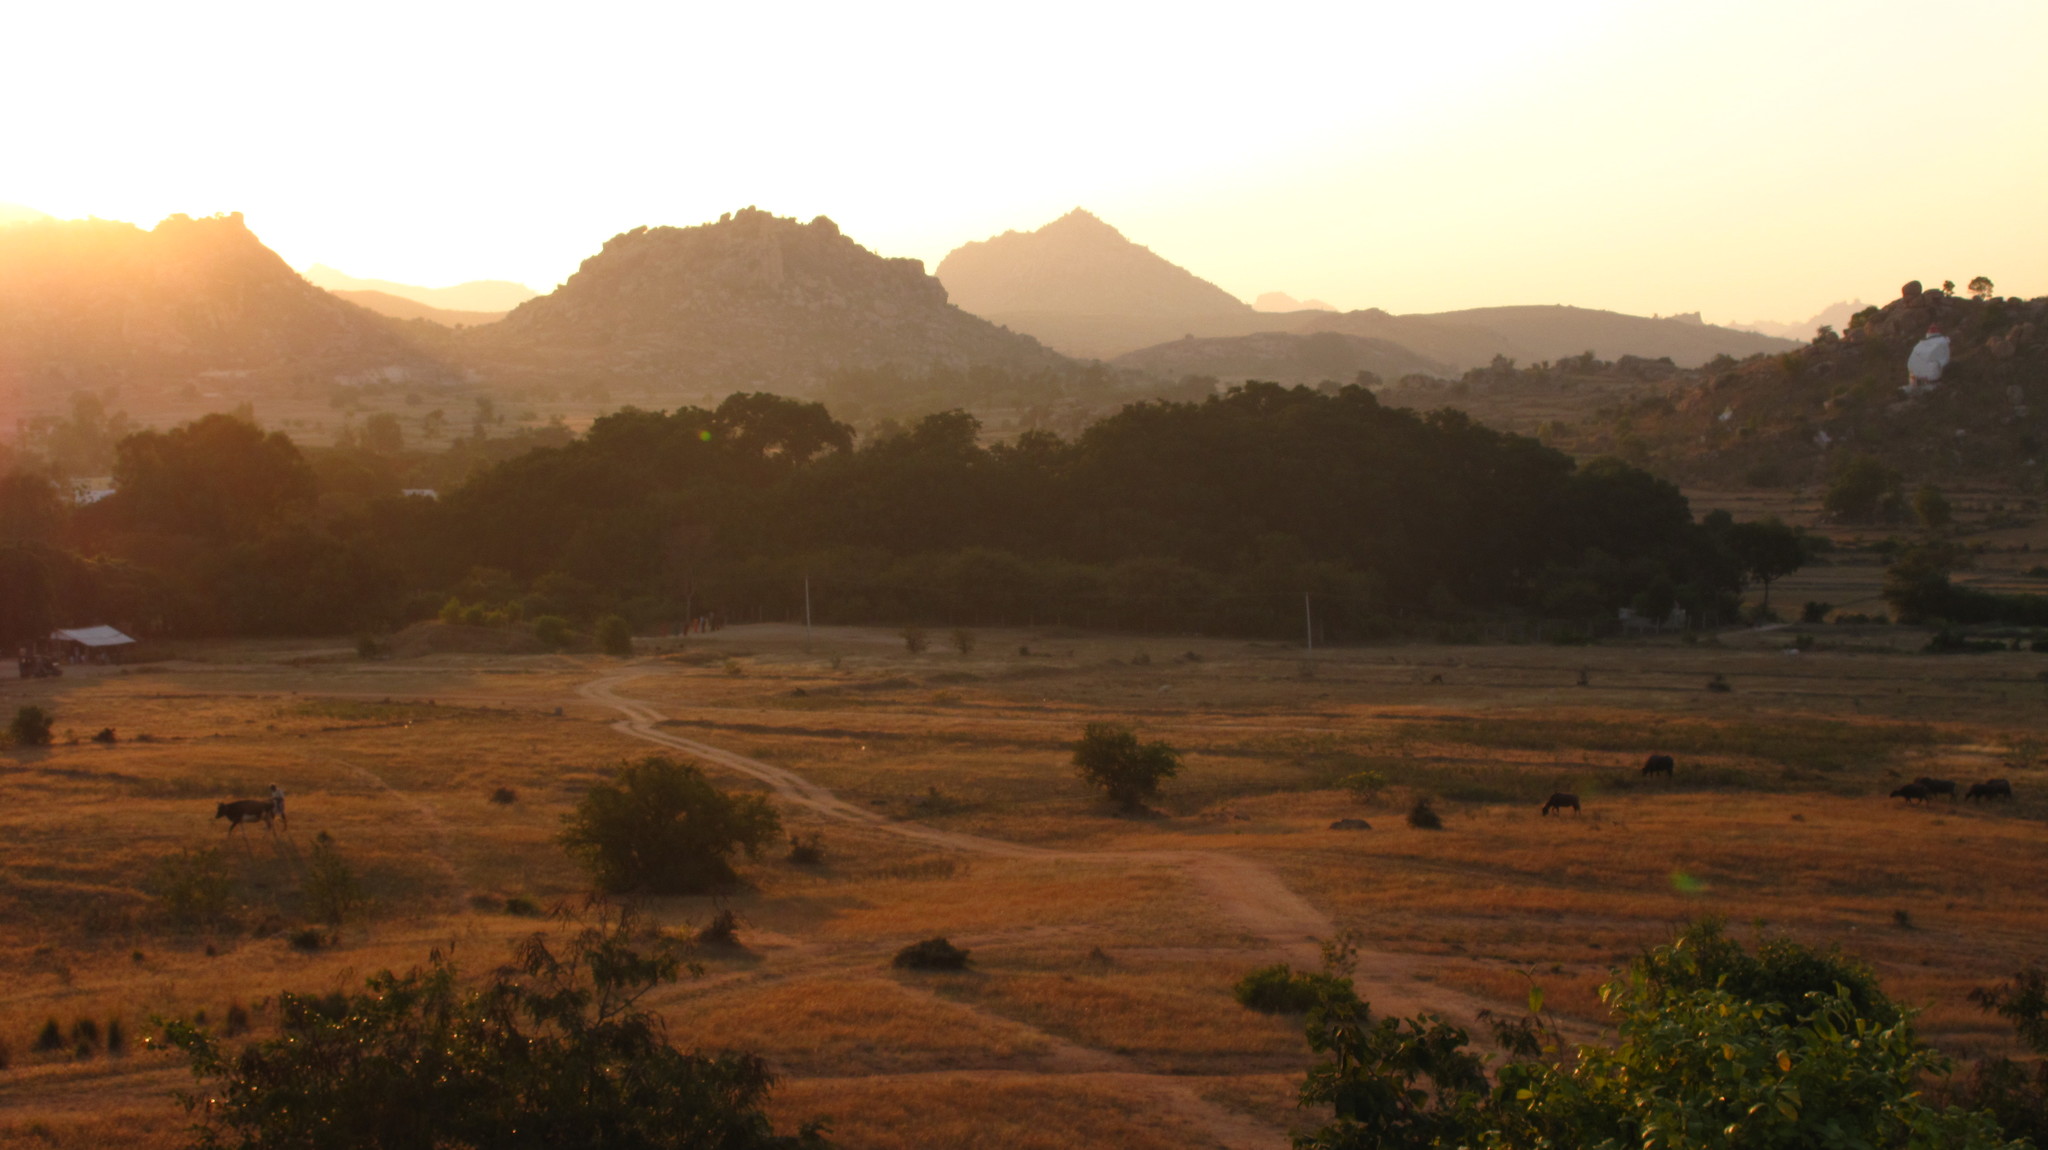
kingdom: Plantae
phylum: Tracheophyta
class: Magnoliopsida
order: Rosales
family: Moraceae
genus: Ficus
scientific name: Ficus benghalensis
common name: Indian banyan
